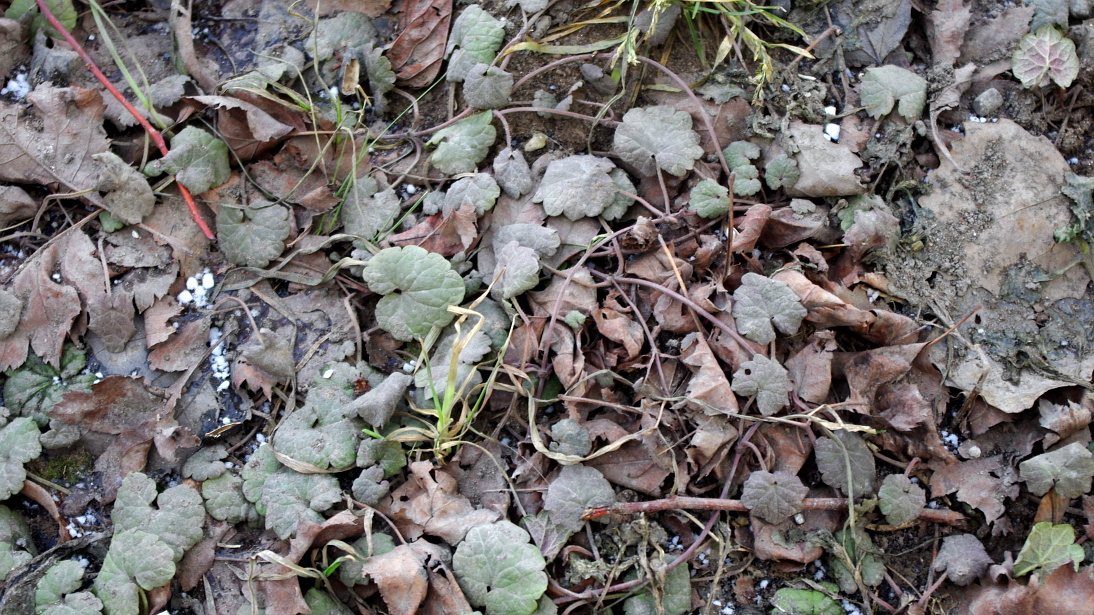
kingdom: Plantae
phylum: Tracheophyta
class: Magnoliopsida
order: Lamiales
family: Lamiaceae
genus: Glechoma
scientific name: Glechoma hederacea
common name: Ground ivy
